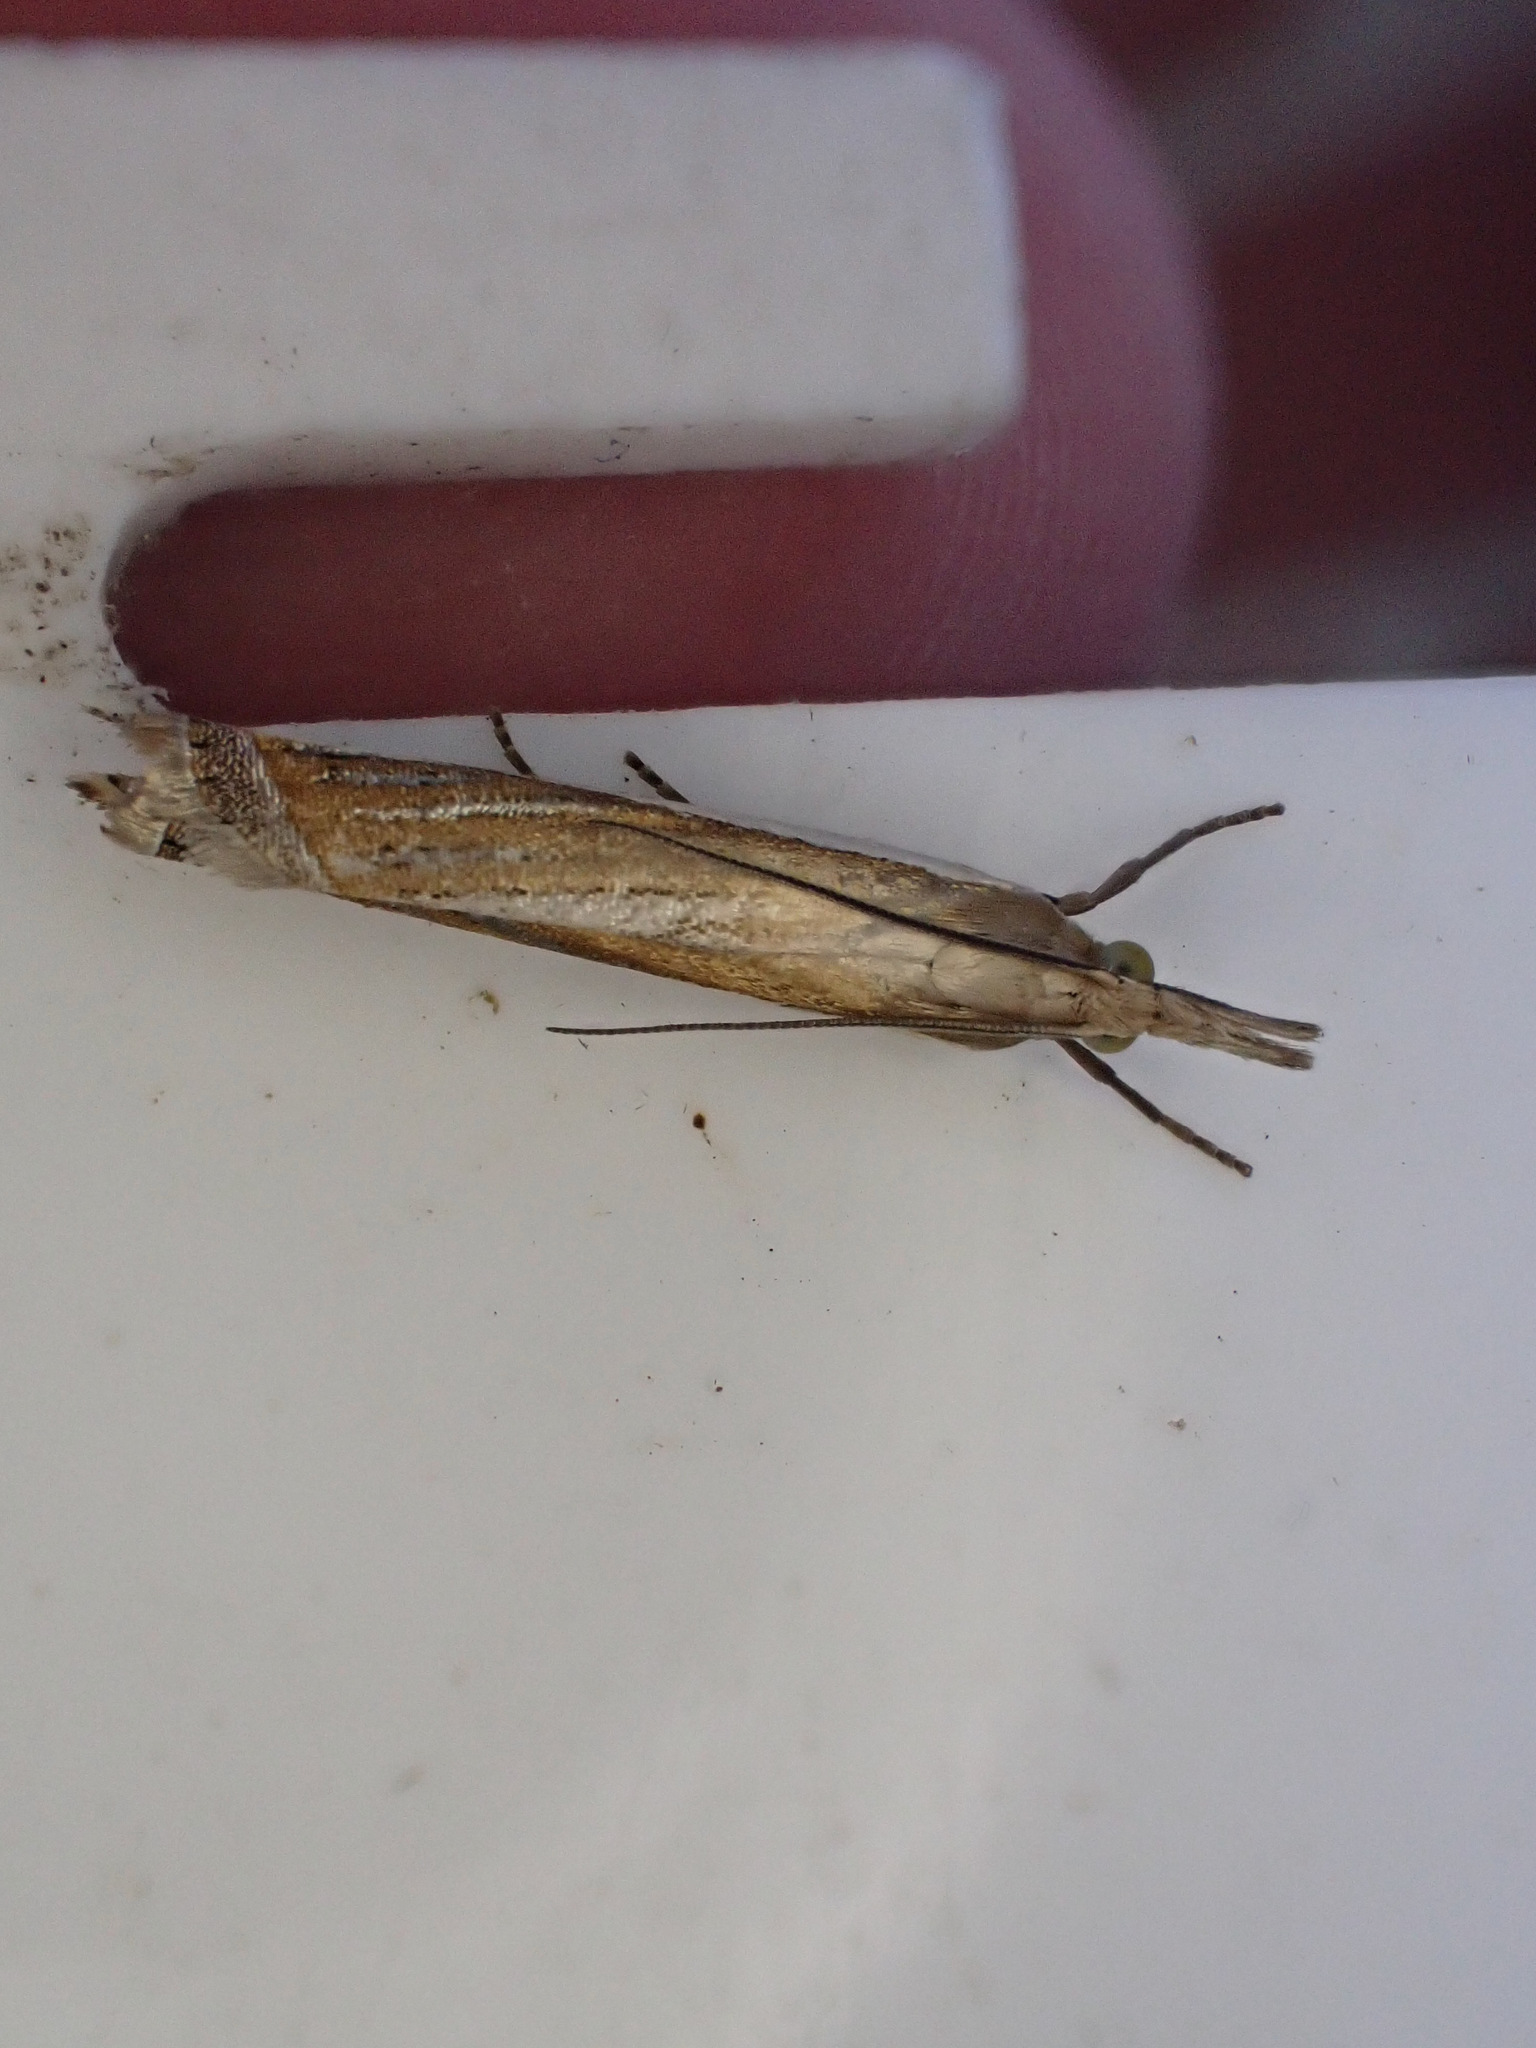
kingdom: Animalia
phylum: Arthropoda
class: Insecta
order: Lepidoptera
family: Crambidae
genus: Crambus
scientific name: Crambus pascuella
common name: Inlaid grass-veneer
